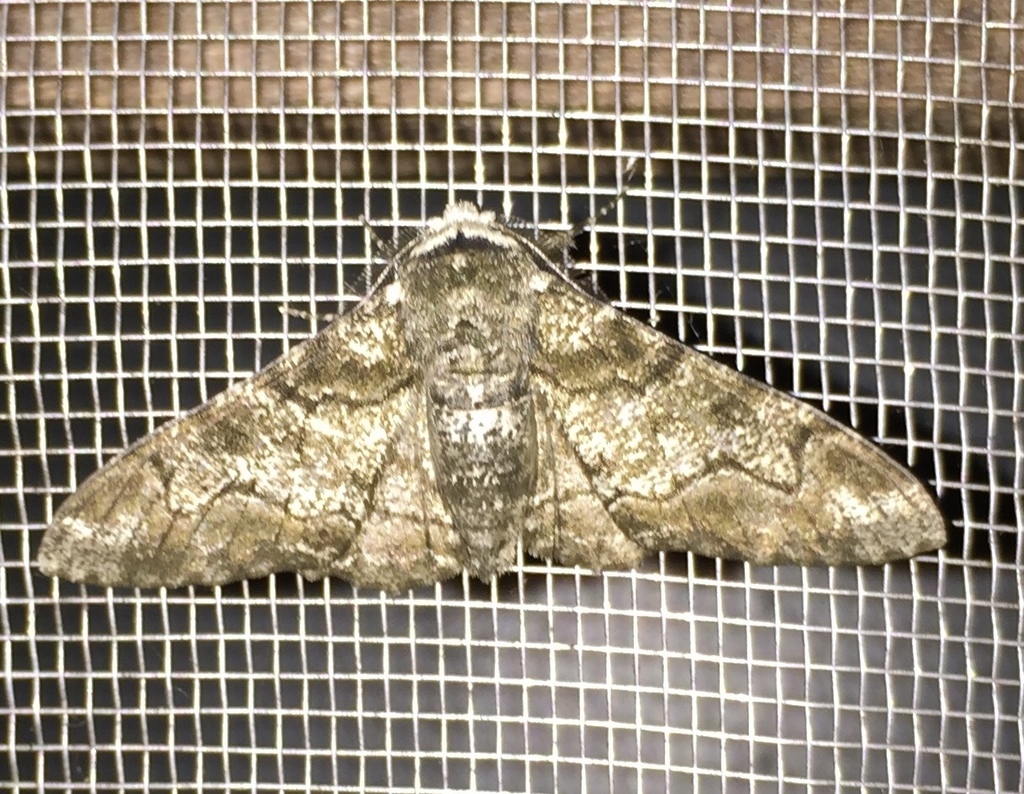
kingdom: Animalia
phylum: Arthropoda
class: Insecta
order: Lepidoptera
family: Geometridae
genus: Biston
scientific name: Biston betularia
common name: Peppered moth
